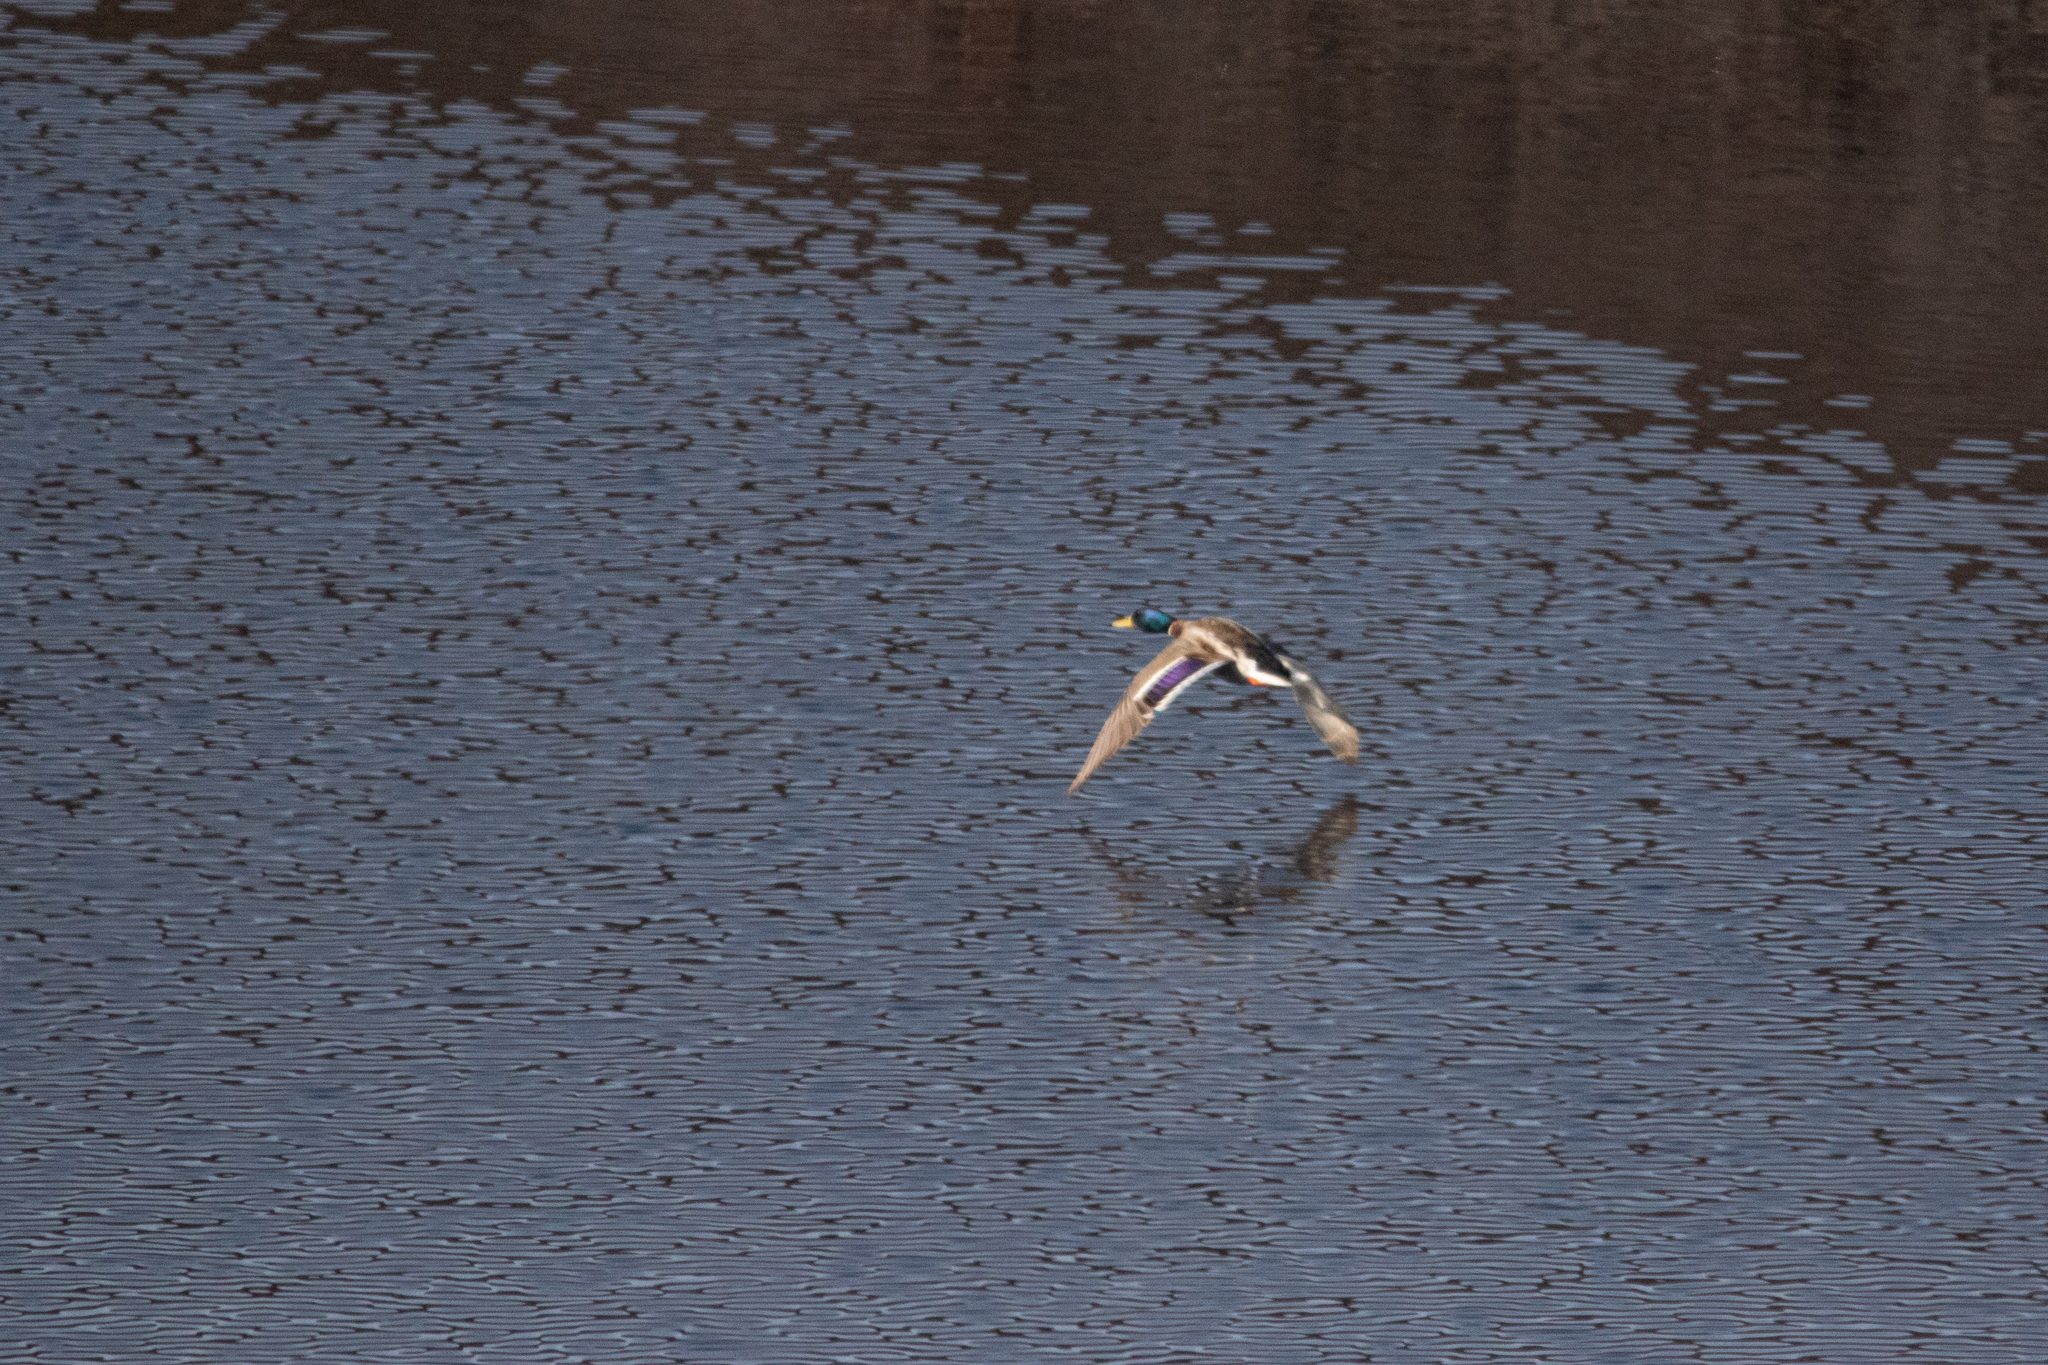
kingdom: Animalia
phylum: Chordata
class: Aves
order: Anseriformes
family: Anatidae
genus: Anas
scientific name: Anas platyrhynchos
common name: Mallard
